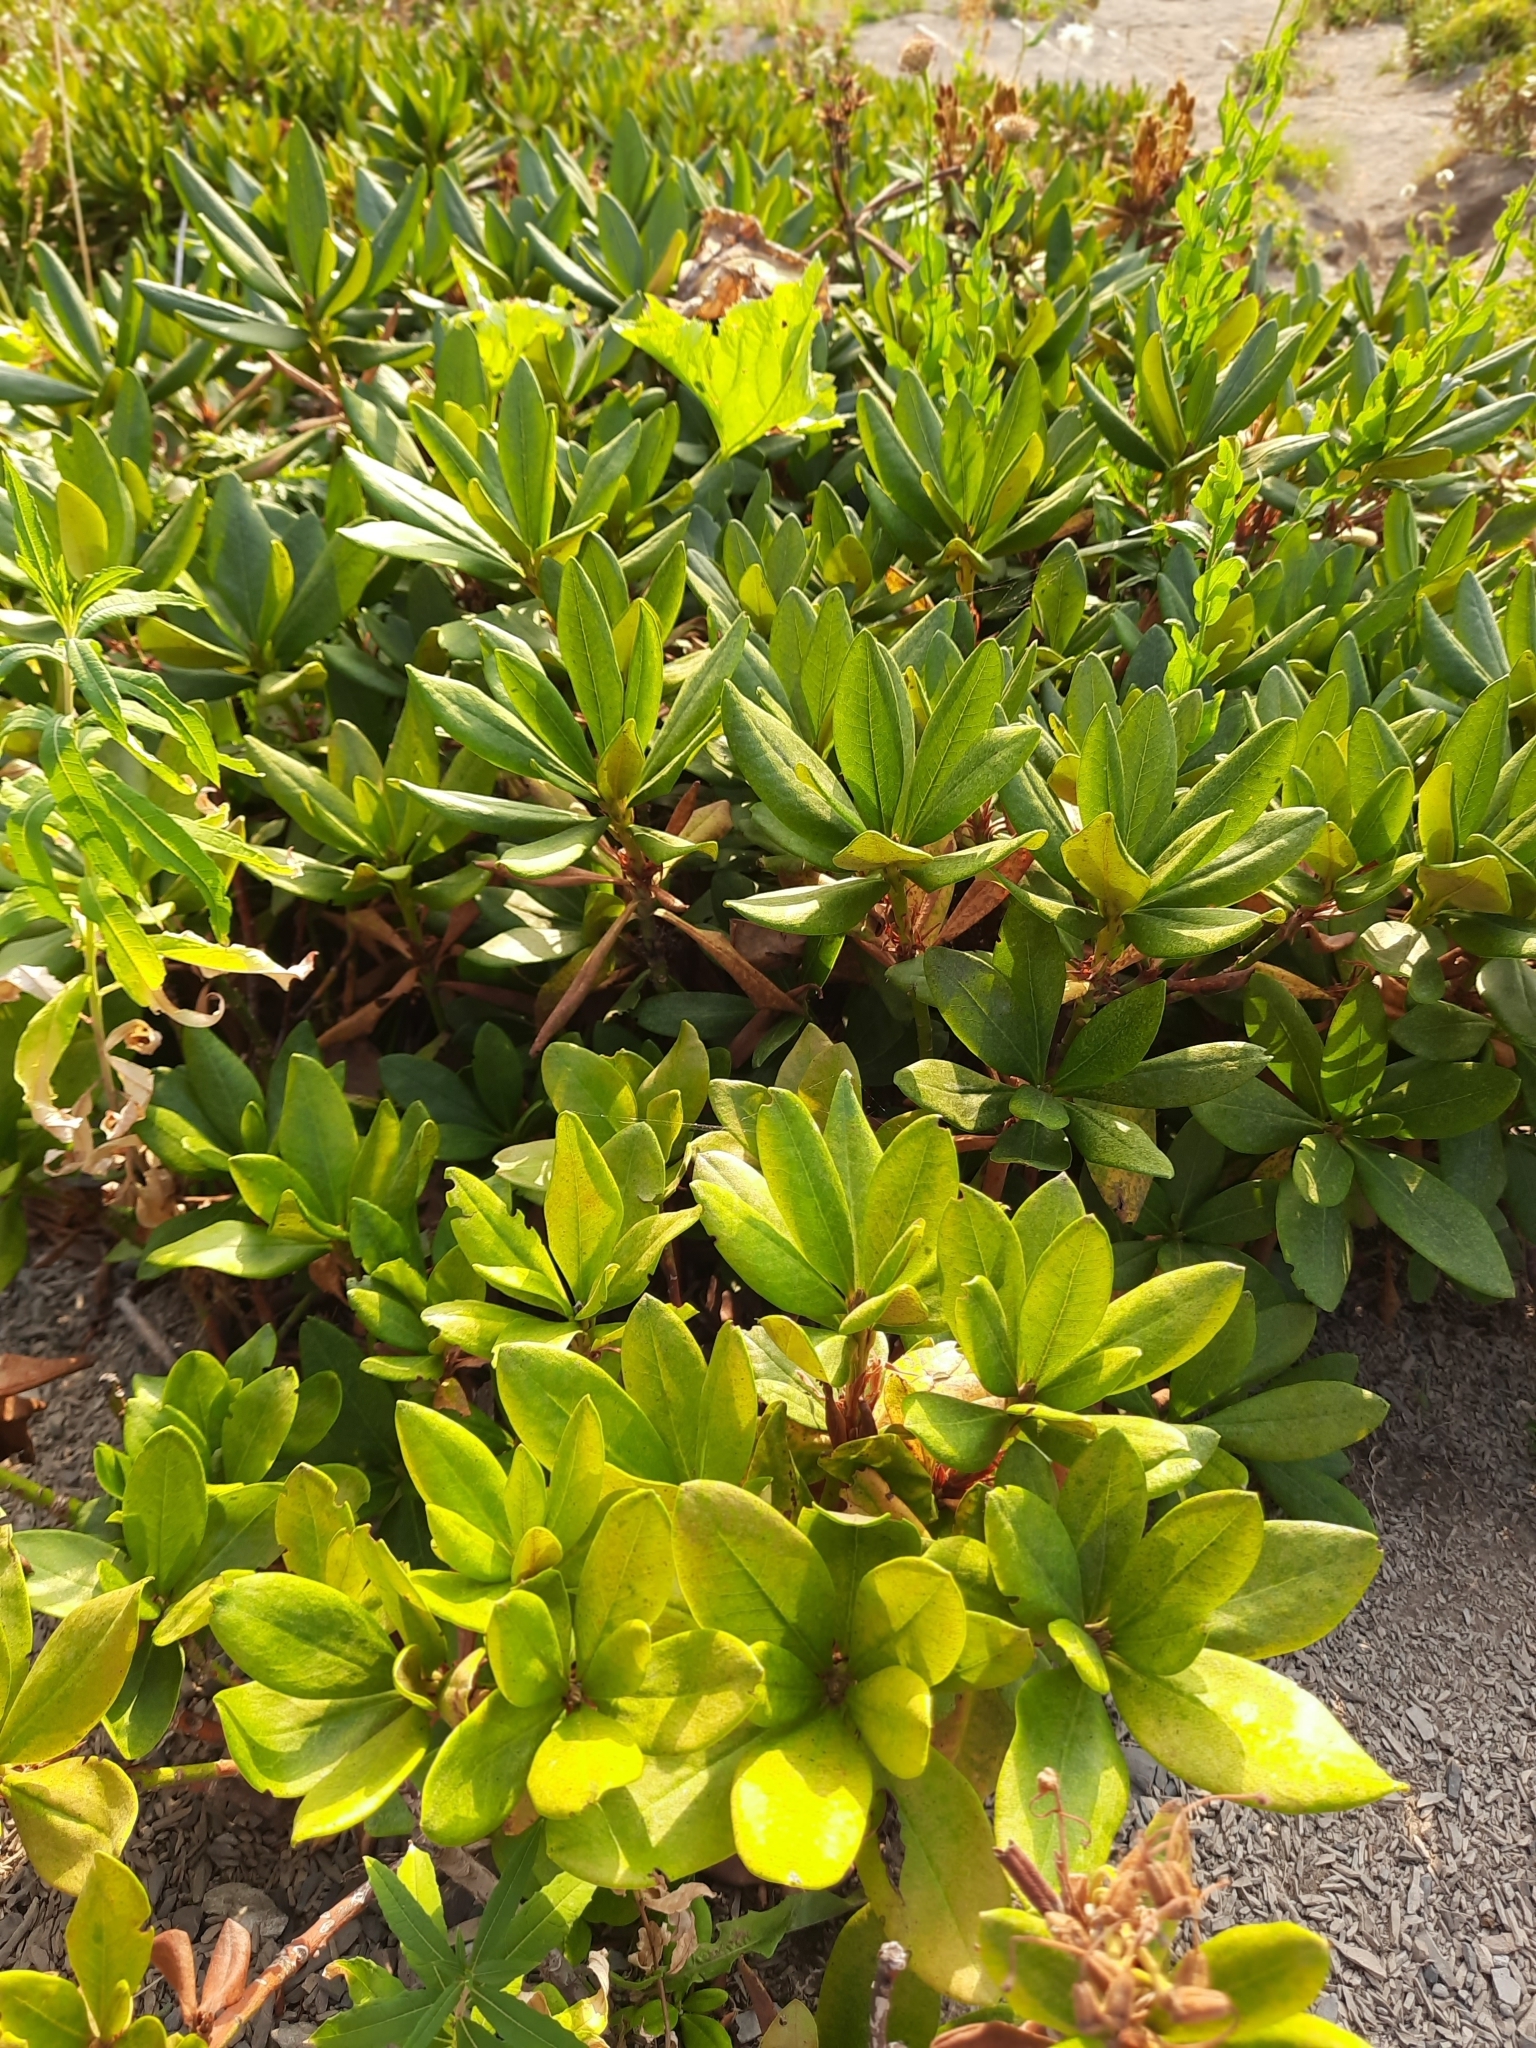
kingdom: Plantae
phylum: Tracheophyta
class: Magnoliopsida
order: Ericales
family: Ericaceae
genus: Rhododendron
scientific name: Rhododendron caucasicum
